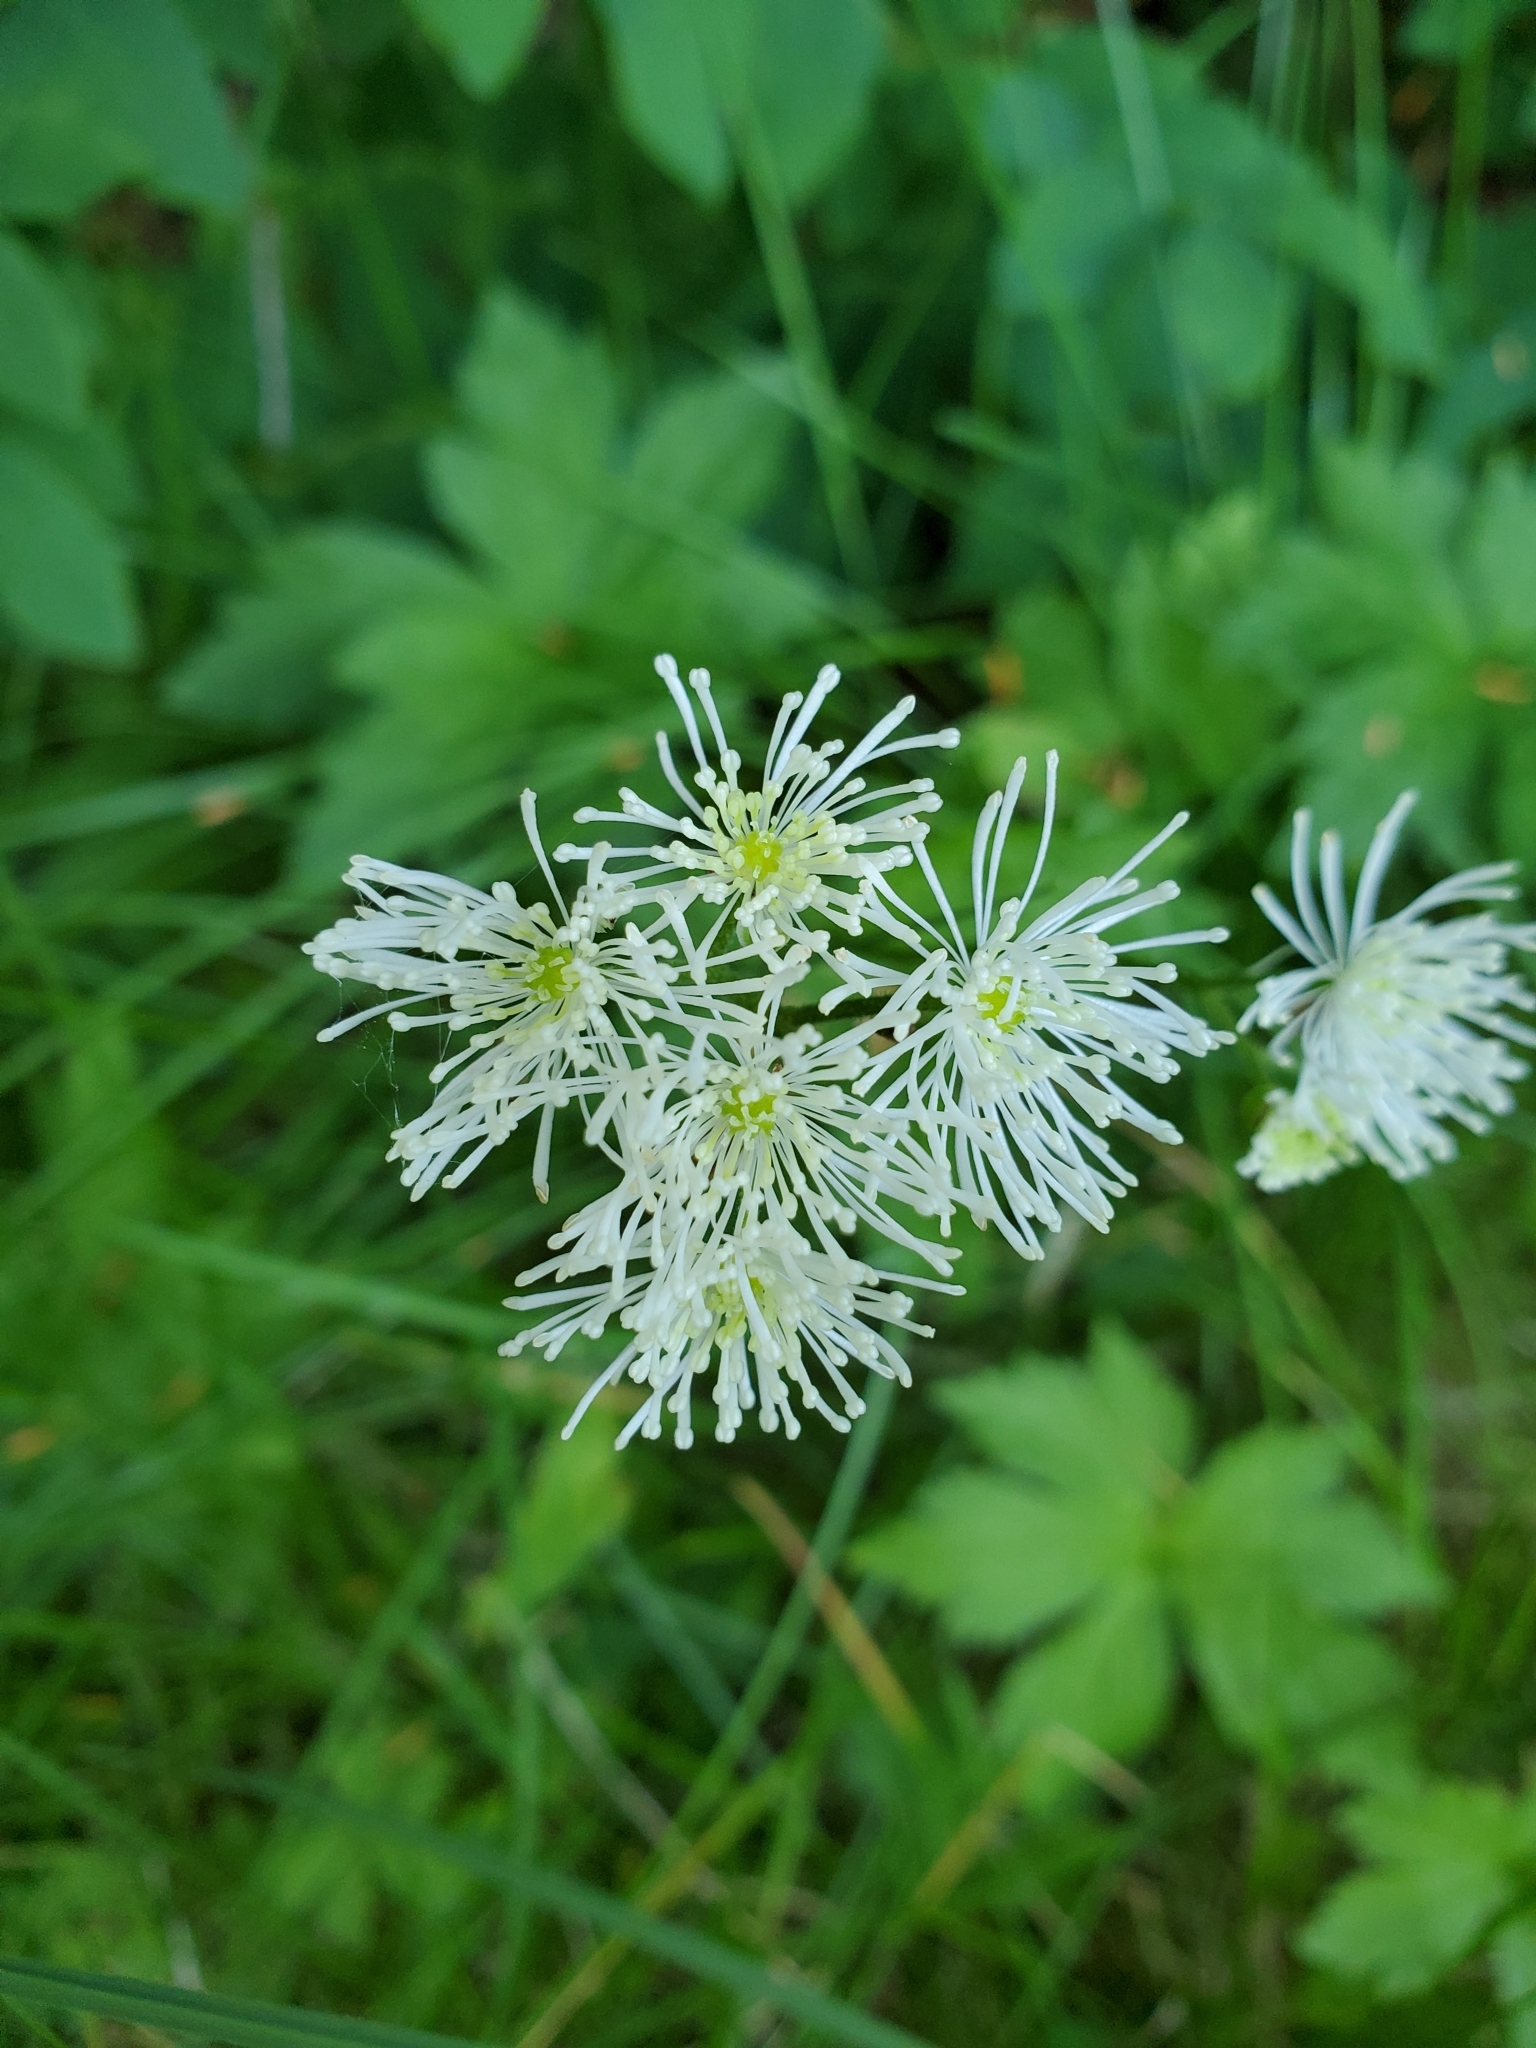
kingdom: Plantae
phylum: Tracheophyta
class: Magnoliopsida
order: Ranunculales
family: Ranunculaceae
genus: Trautvetteria
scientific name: Trautvetteria carolinensis
